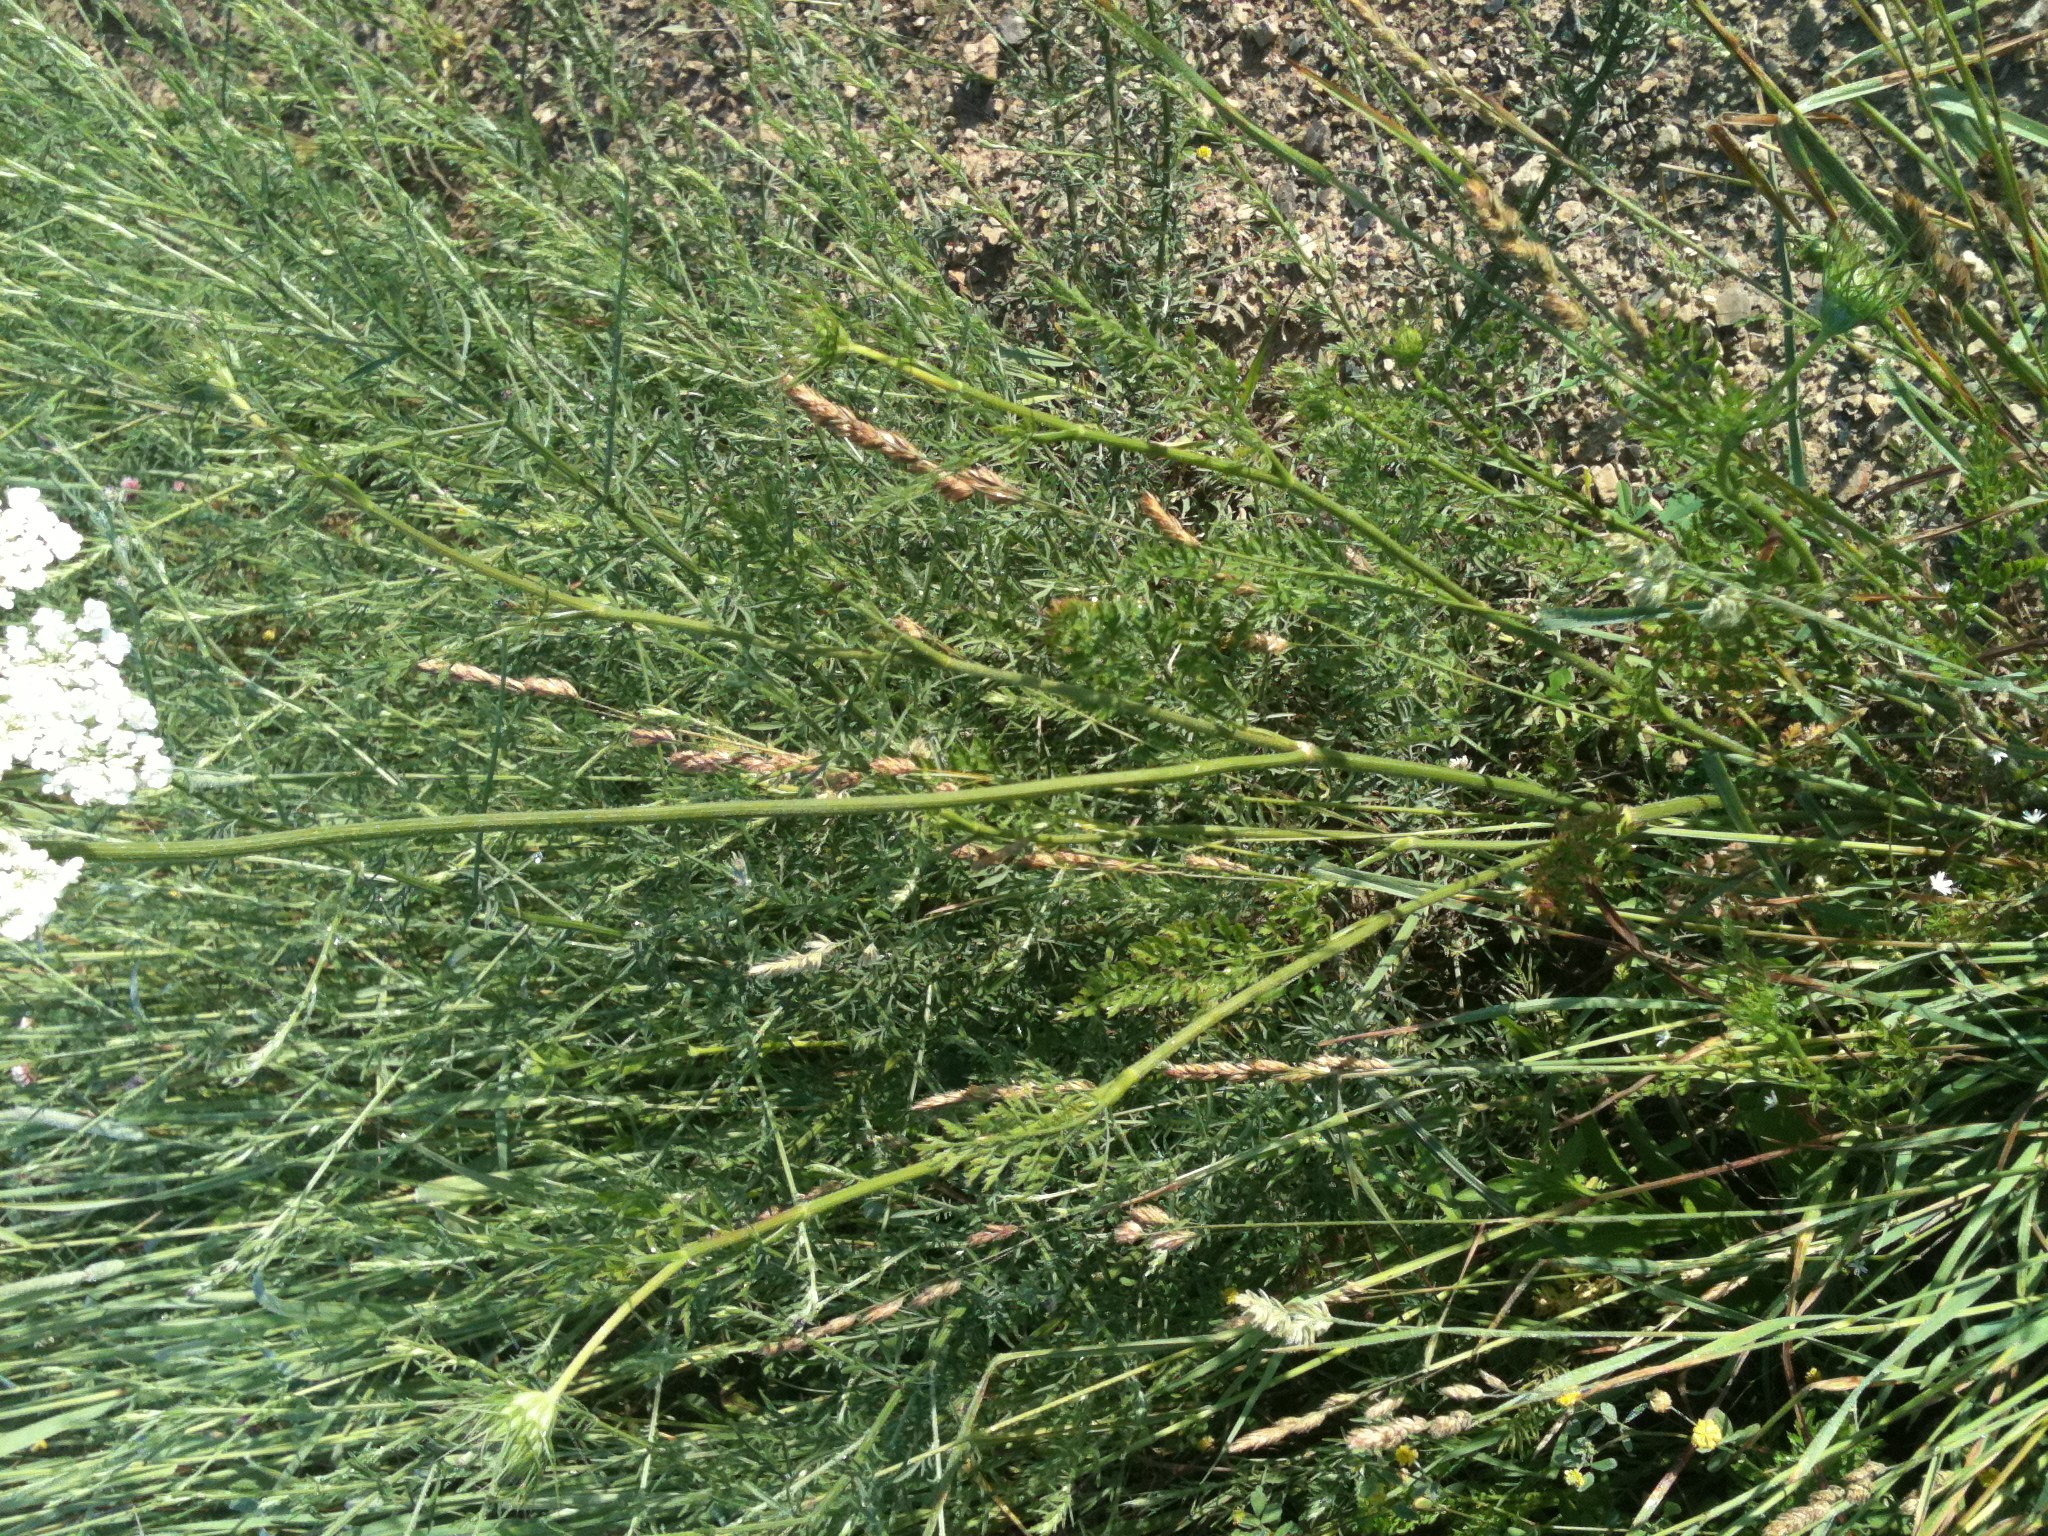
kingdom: Plantae
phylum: Tracheophyta
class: Magnoliopsida
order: Apiales
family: Apiaceae
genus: Daucus
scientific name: Daucus carota
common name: Wild carrot
